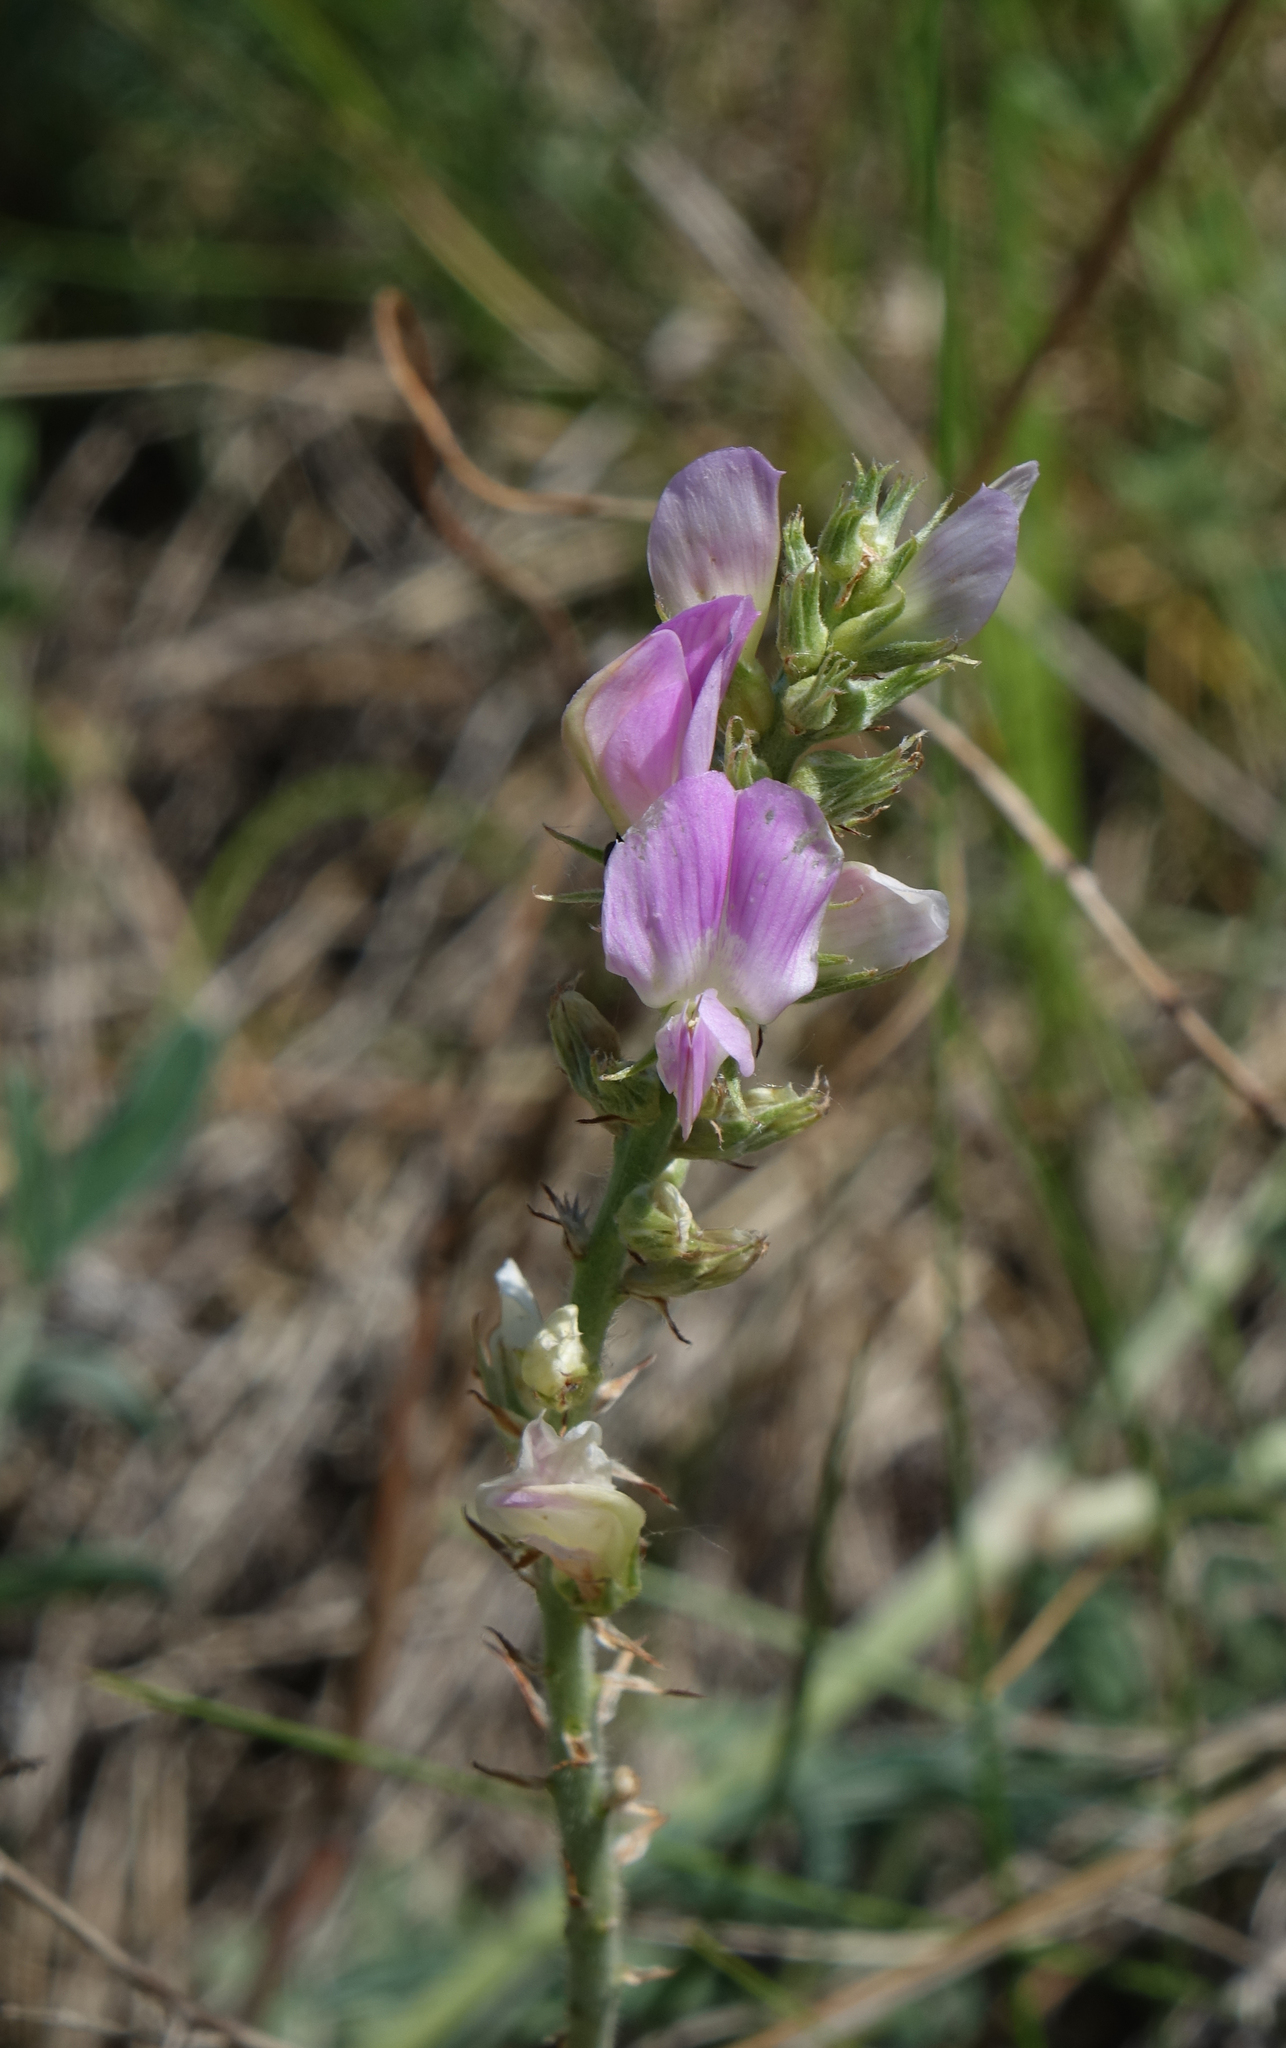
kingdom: Plantae
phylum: Tracheophyta
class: Magnoliopsida
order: Fabales
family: Fabaceae
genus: Hedysarum
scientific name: Hedysarum gmelinii
